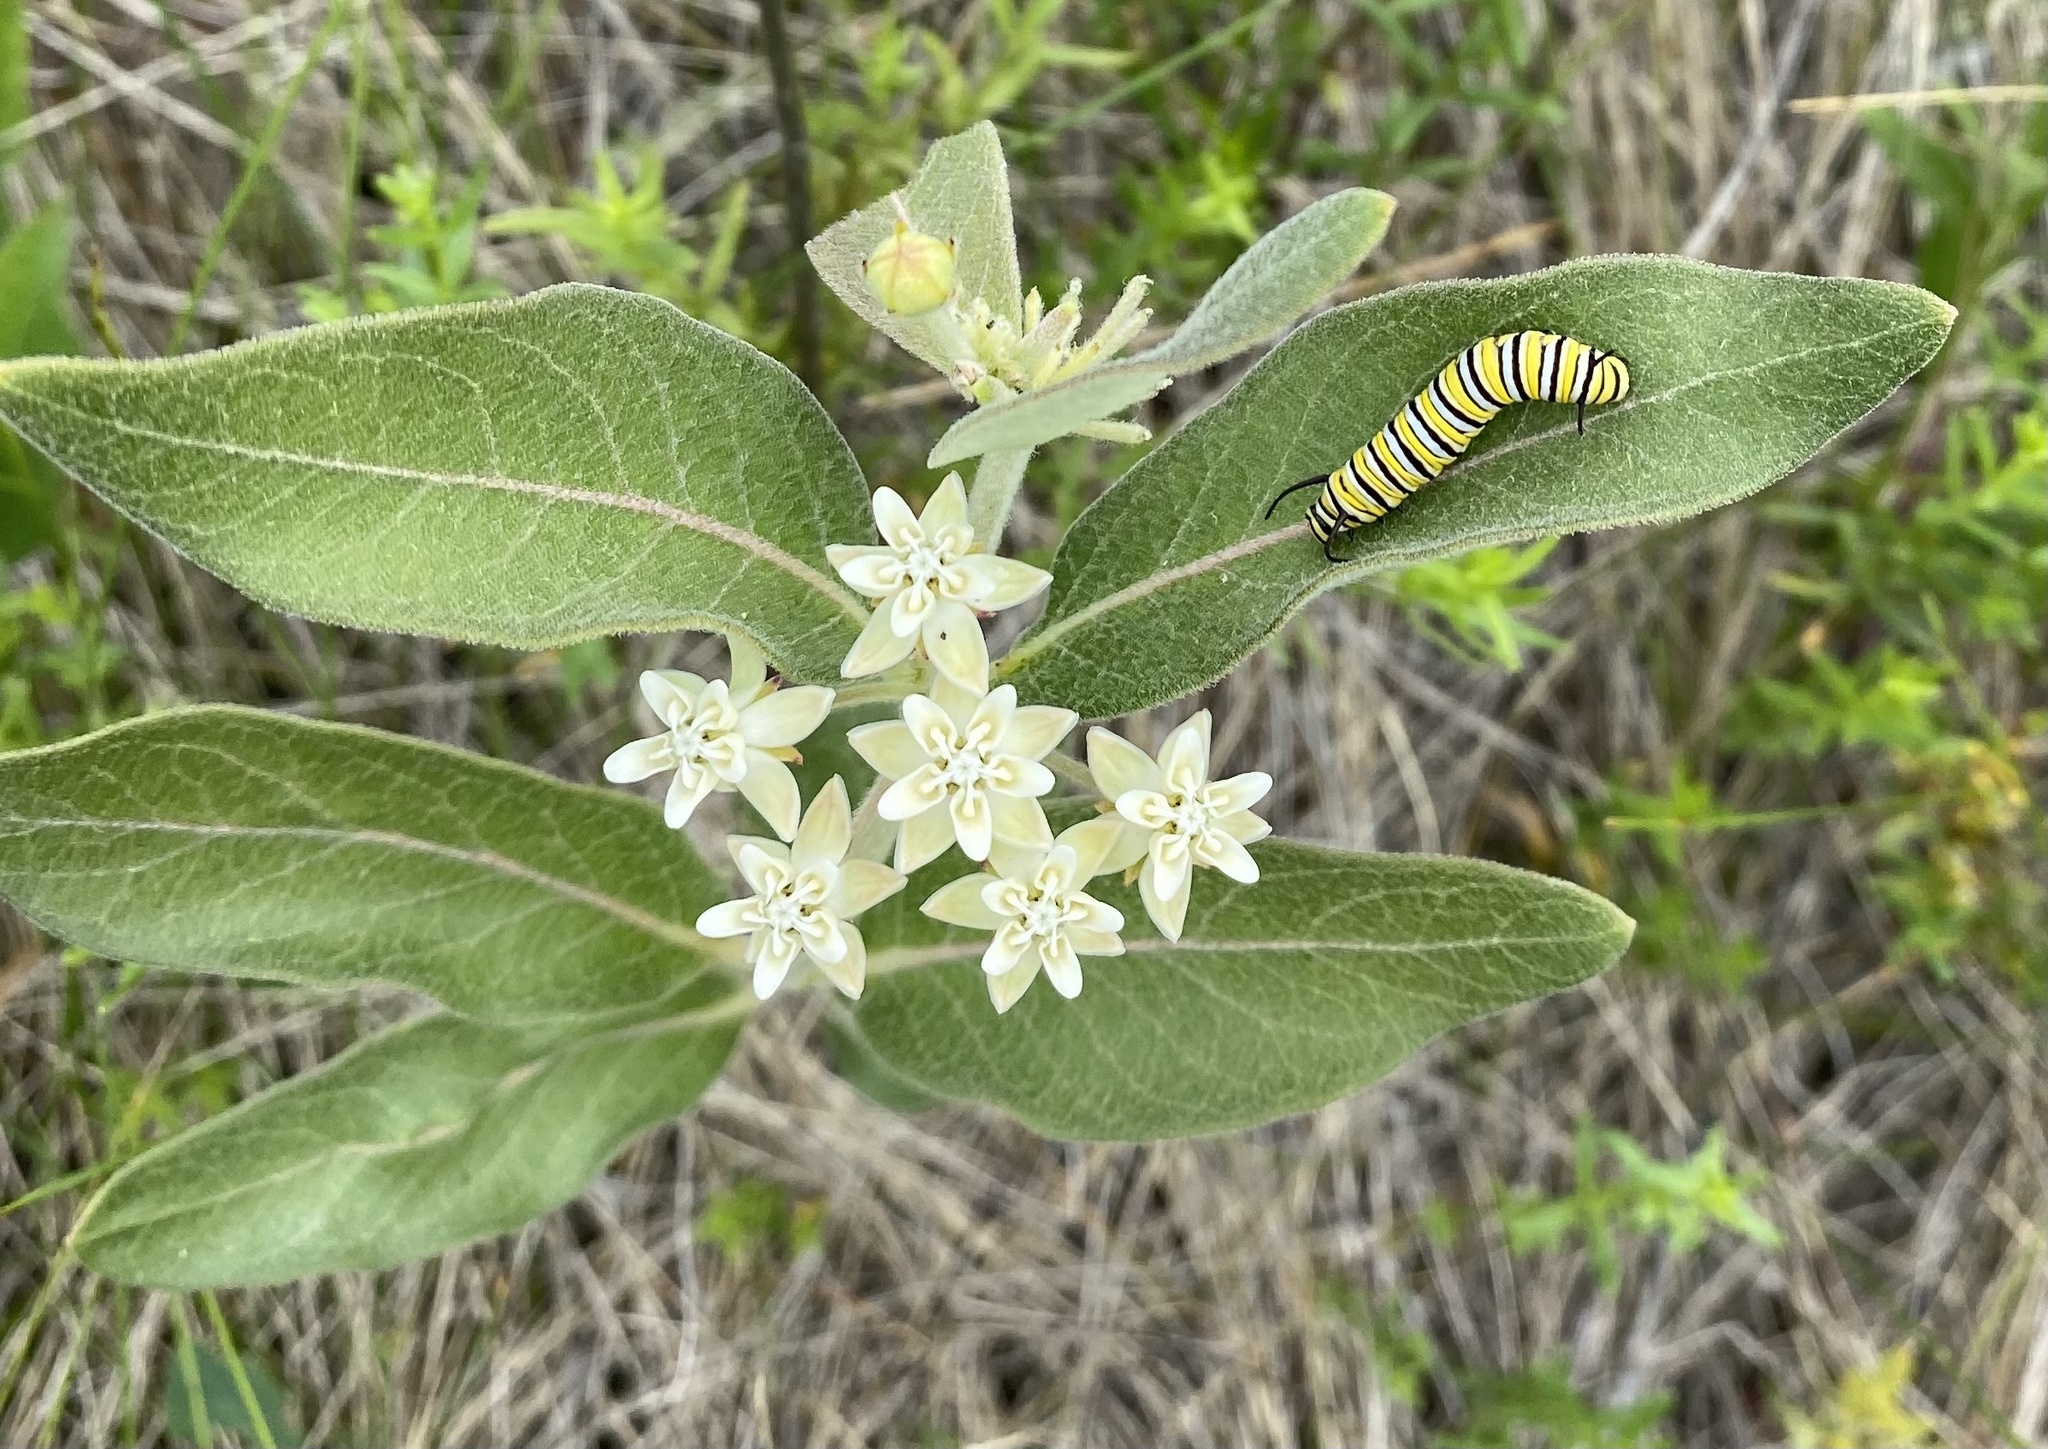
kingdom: Animalia
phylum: Arthropoda
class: Insecta
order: Lepidoptera
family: Nymphalidae
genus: Danaus
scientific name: Danaus plexippus
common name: Monarch
